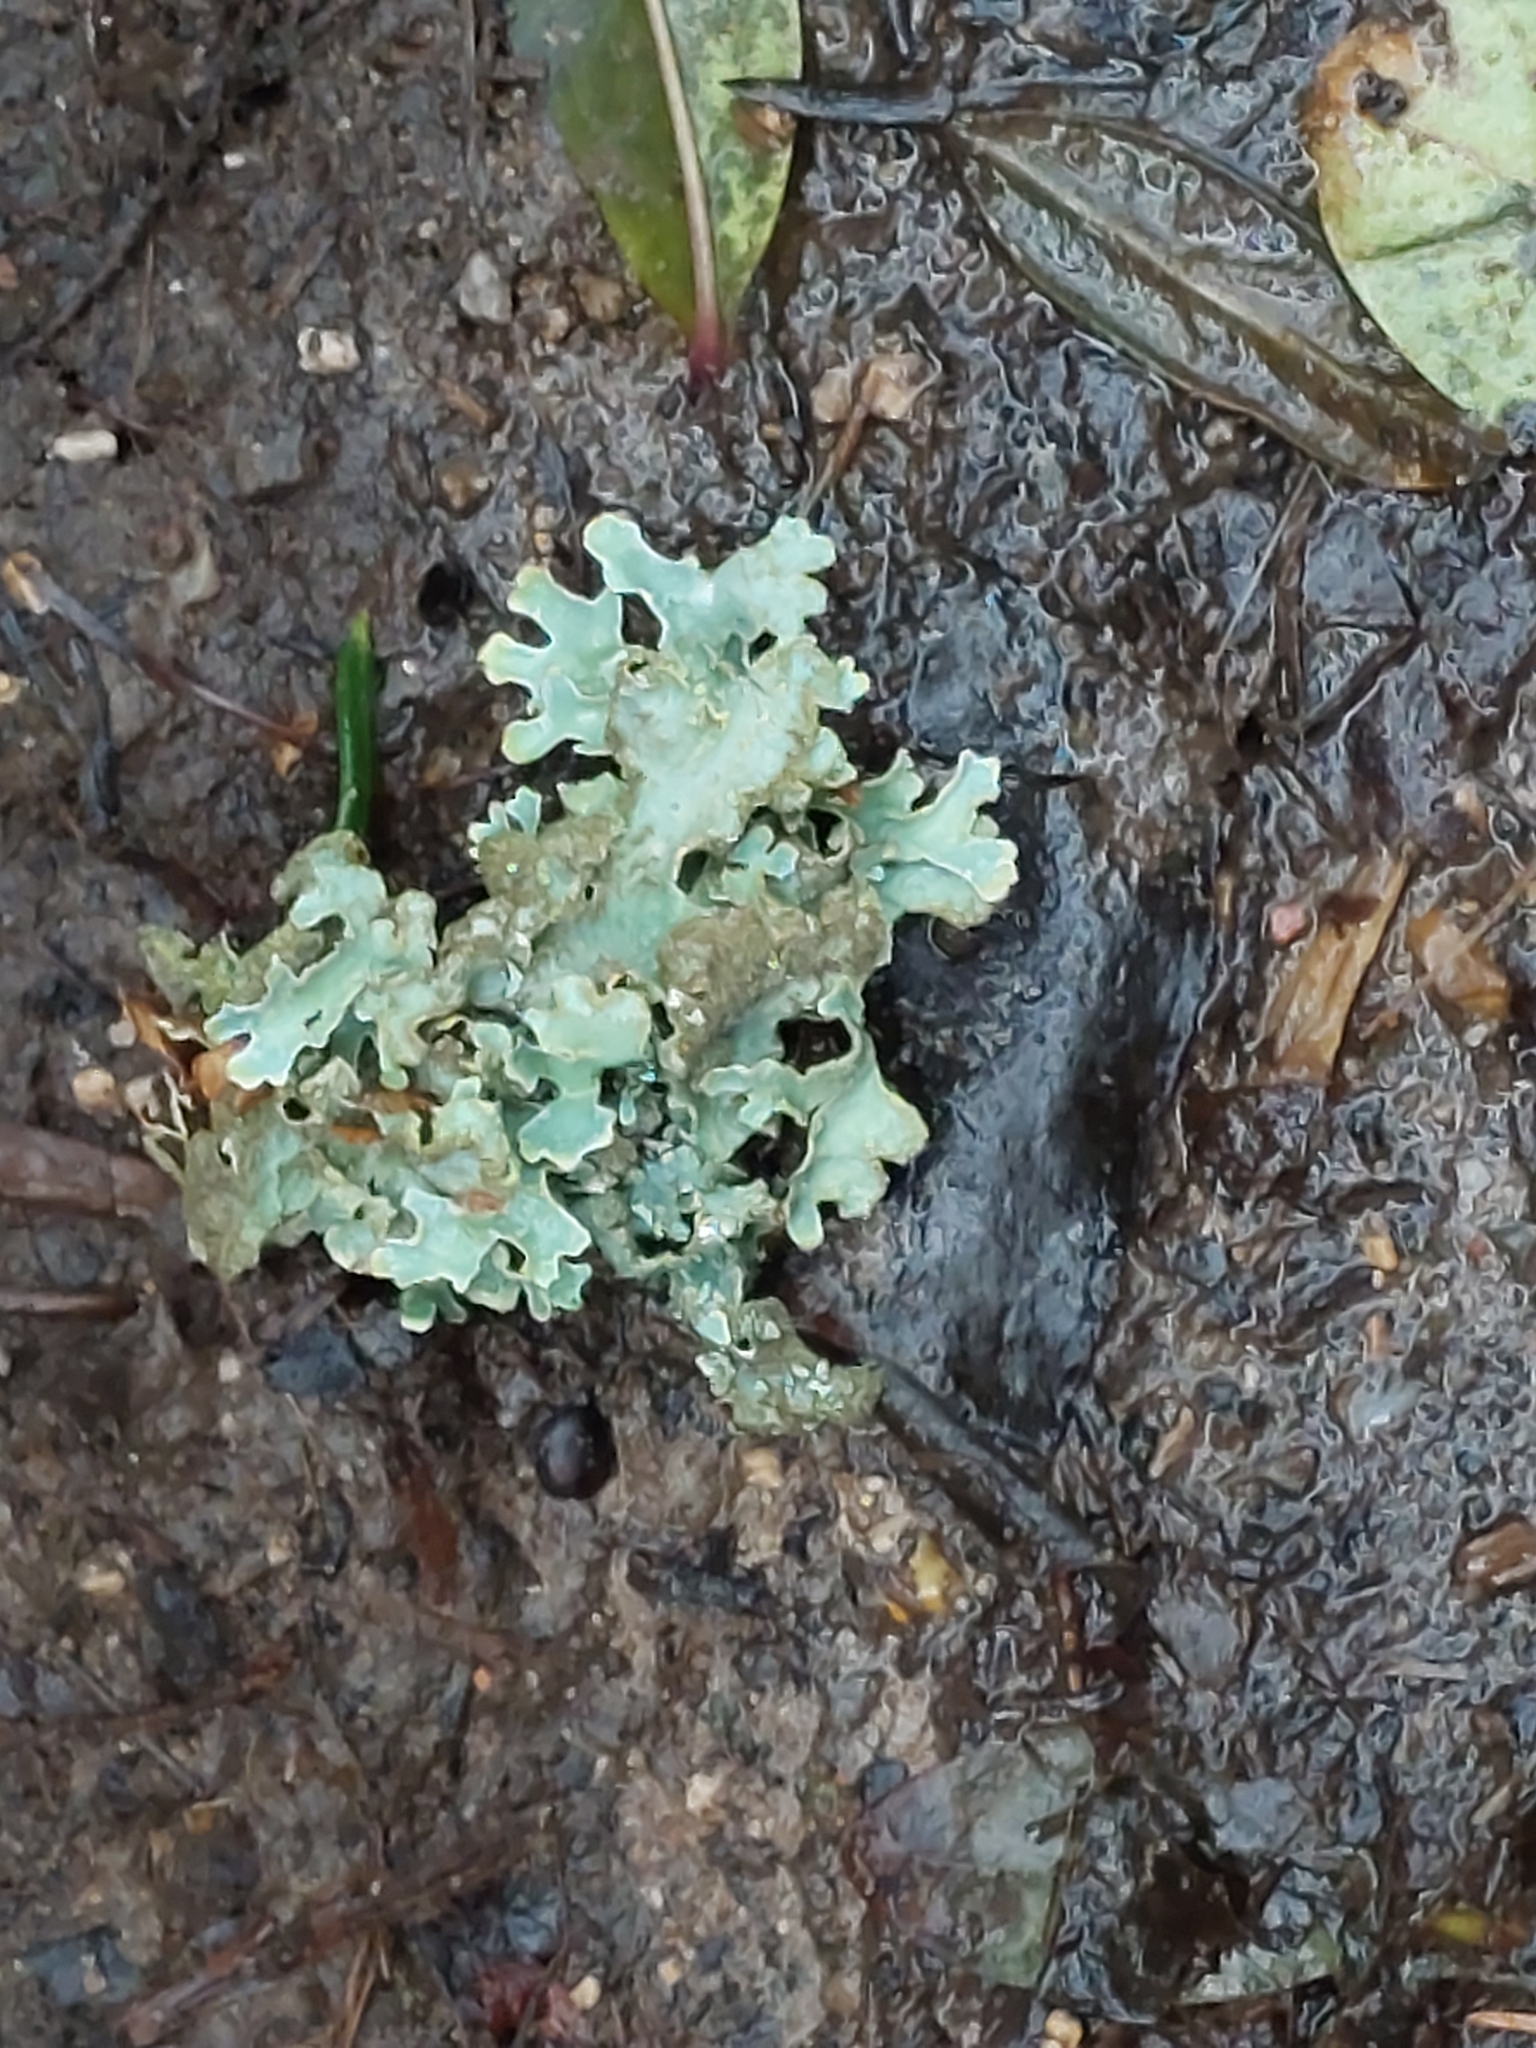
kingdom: Fungi
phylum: Ascomycota
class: Lecanoromycetes
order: Lecanorales
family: Parmeliaceae
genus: Parmelia
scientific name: Parmelia sulcata
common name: Netted shield lichen
